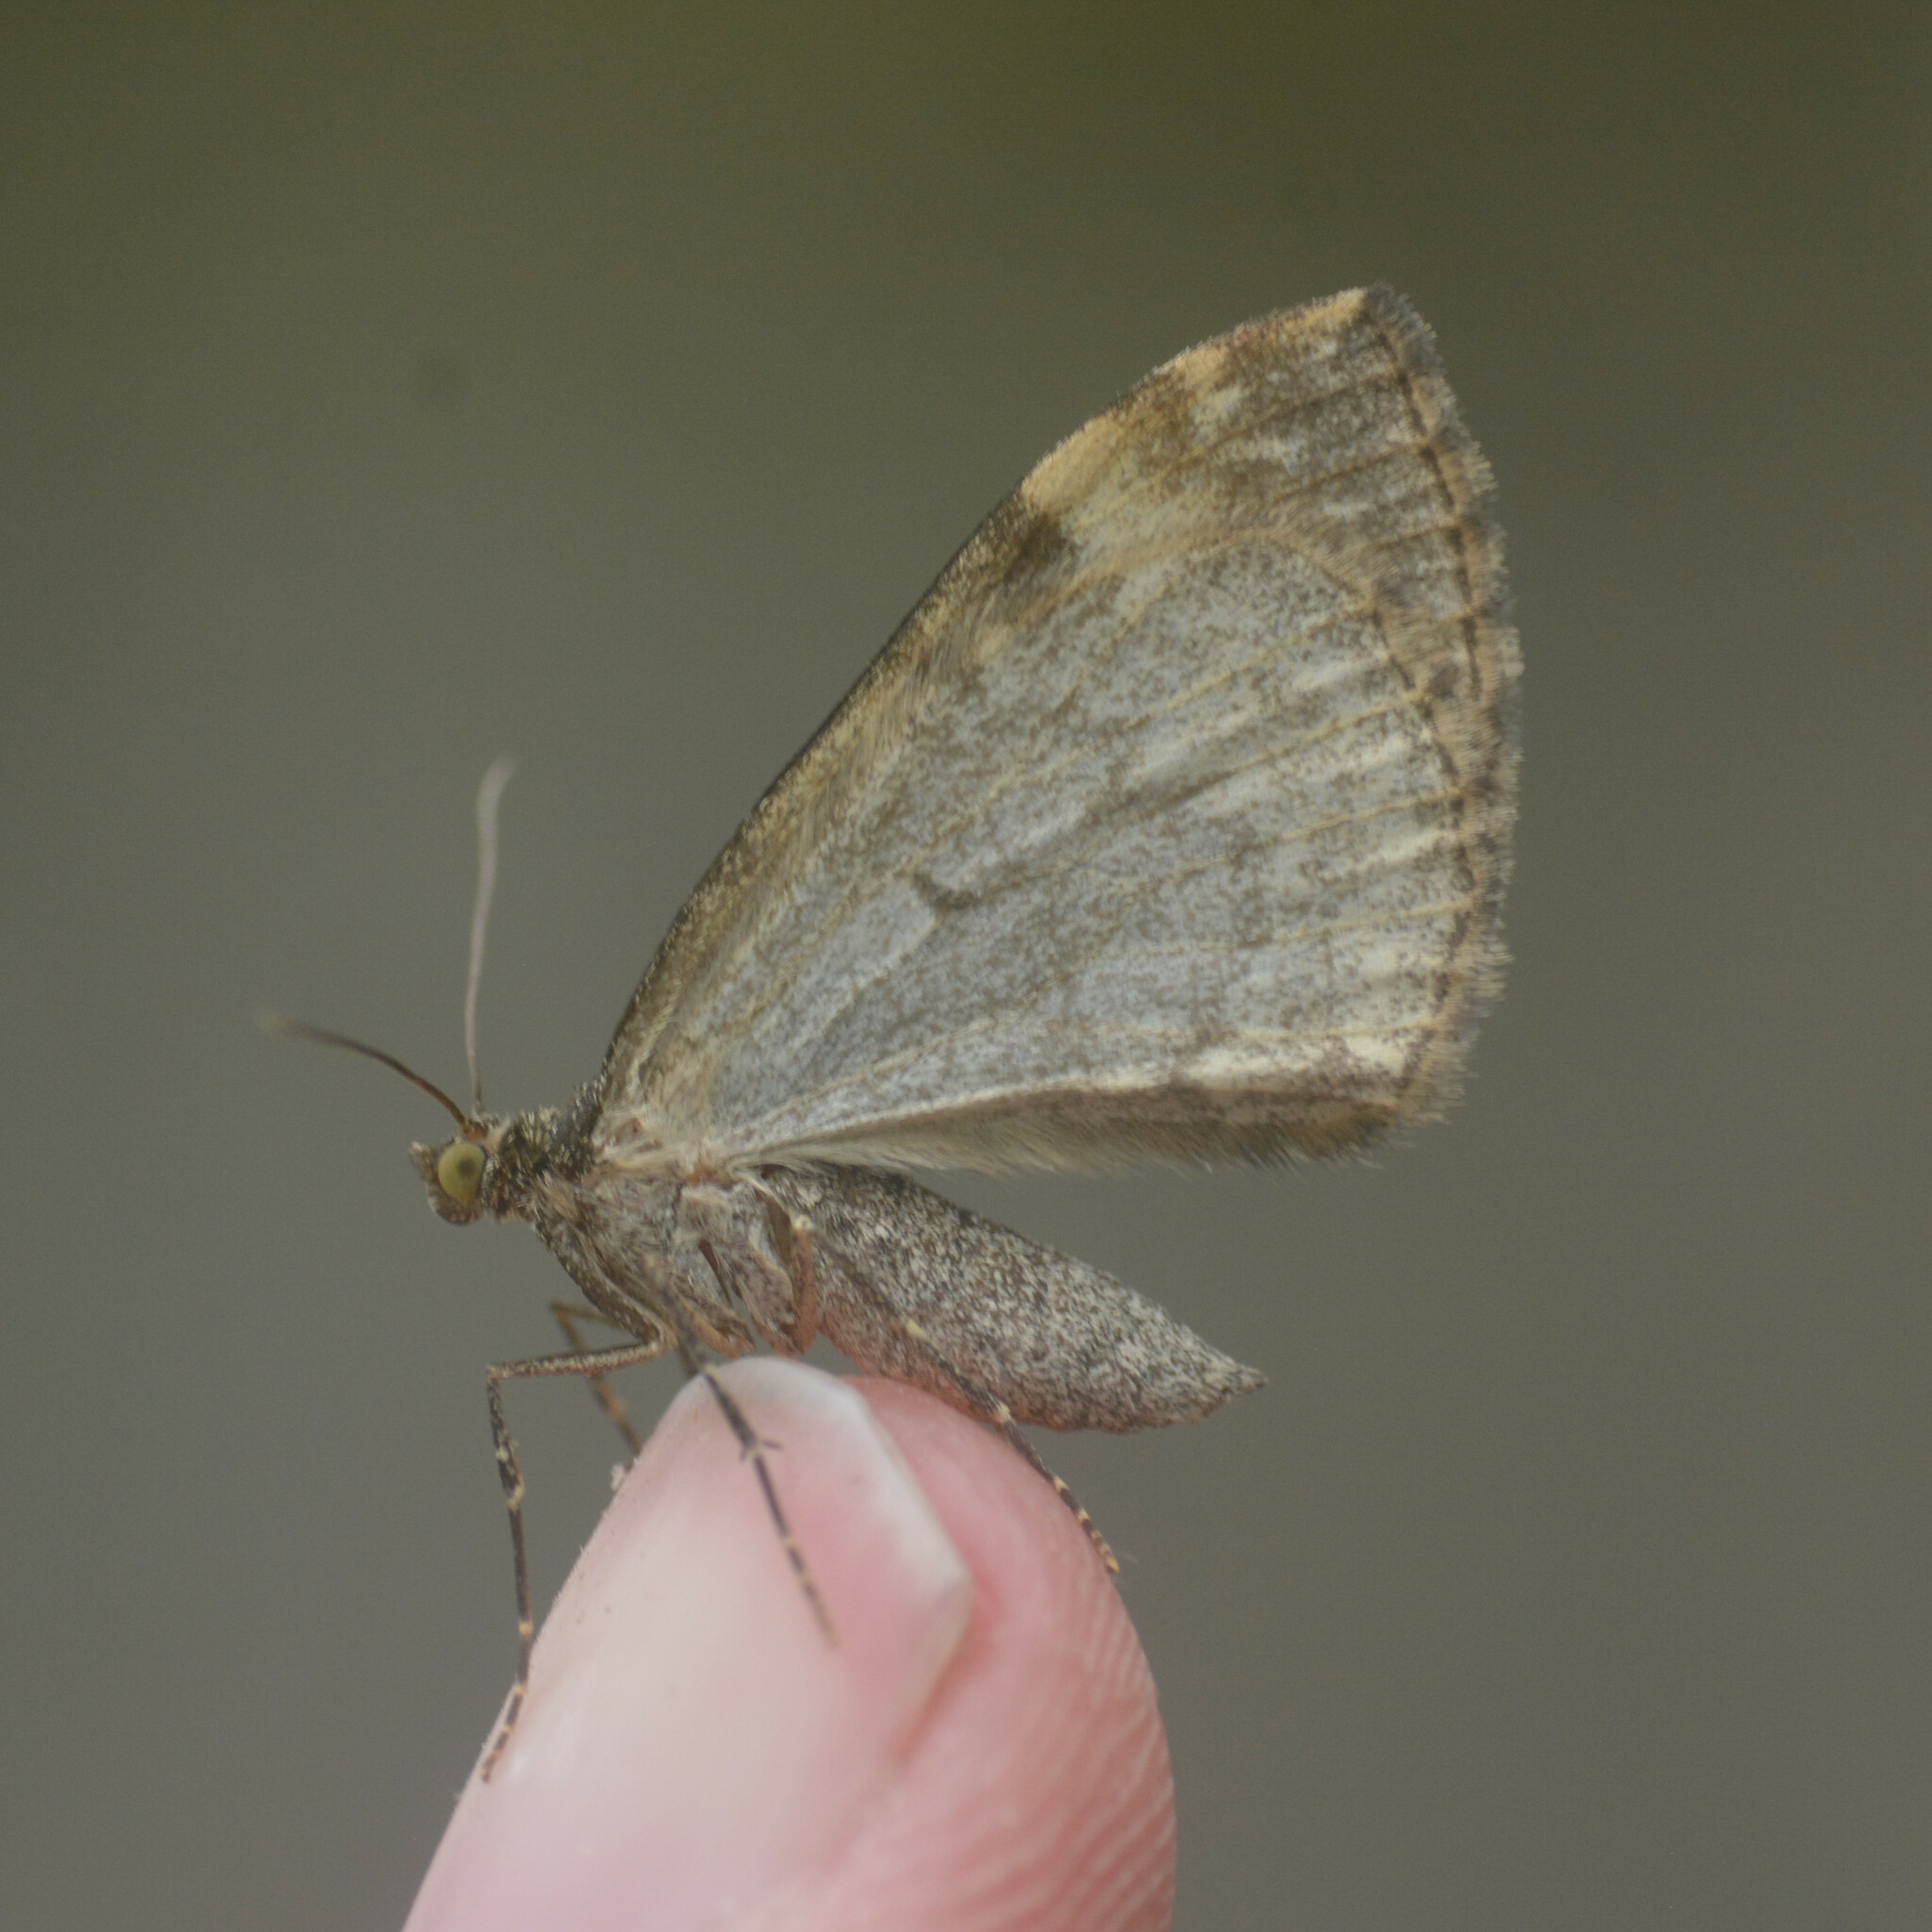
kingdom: Animalia
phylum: Arthropoda
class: Insecta
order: Lepidoptera
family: Geometridae
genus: Dysstroma
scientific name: Dysstroma truncata
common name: Common marbled carpet
